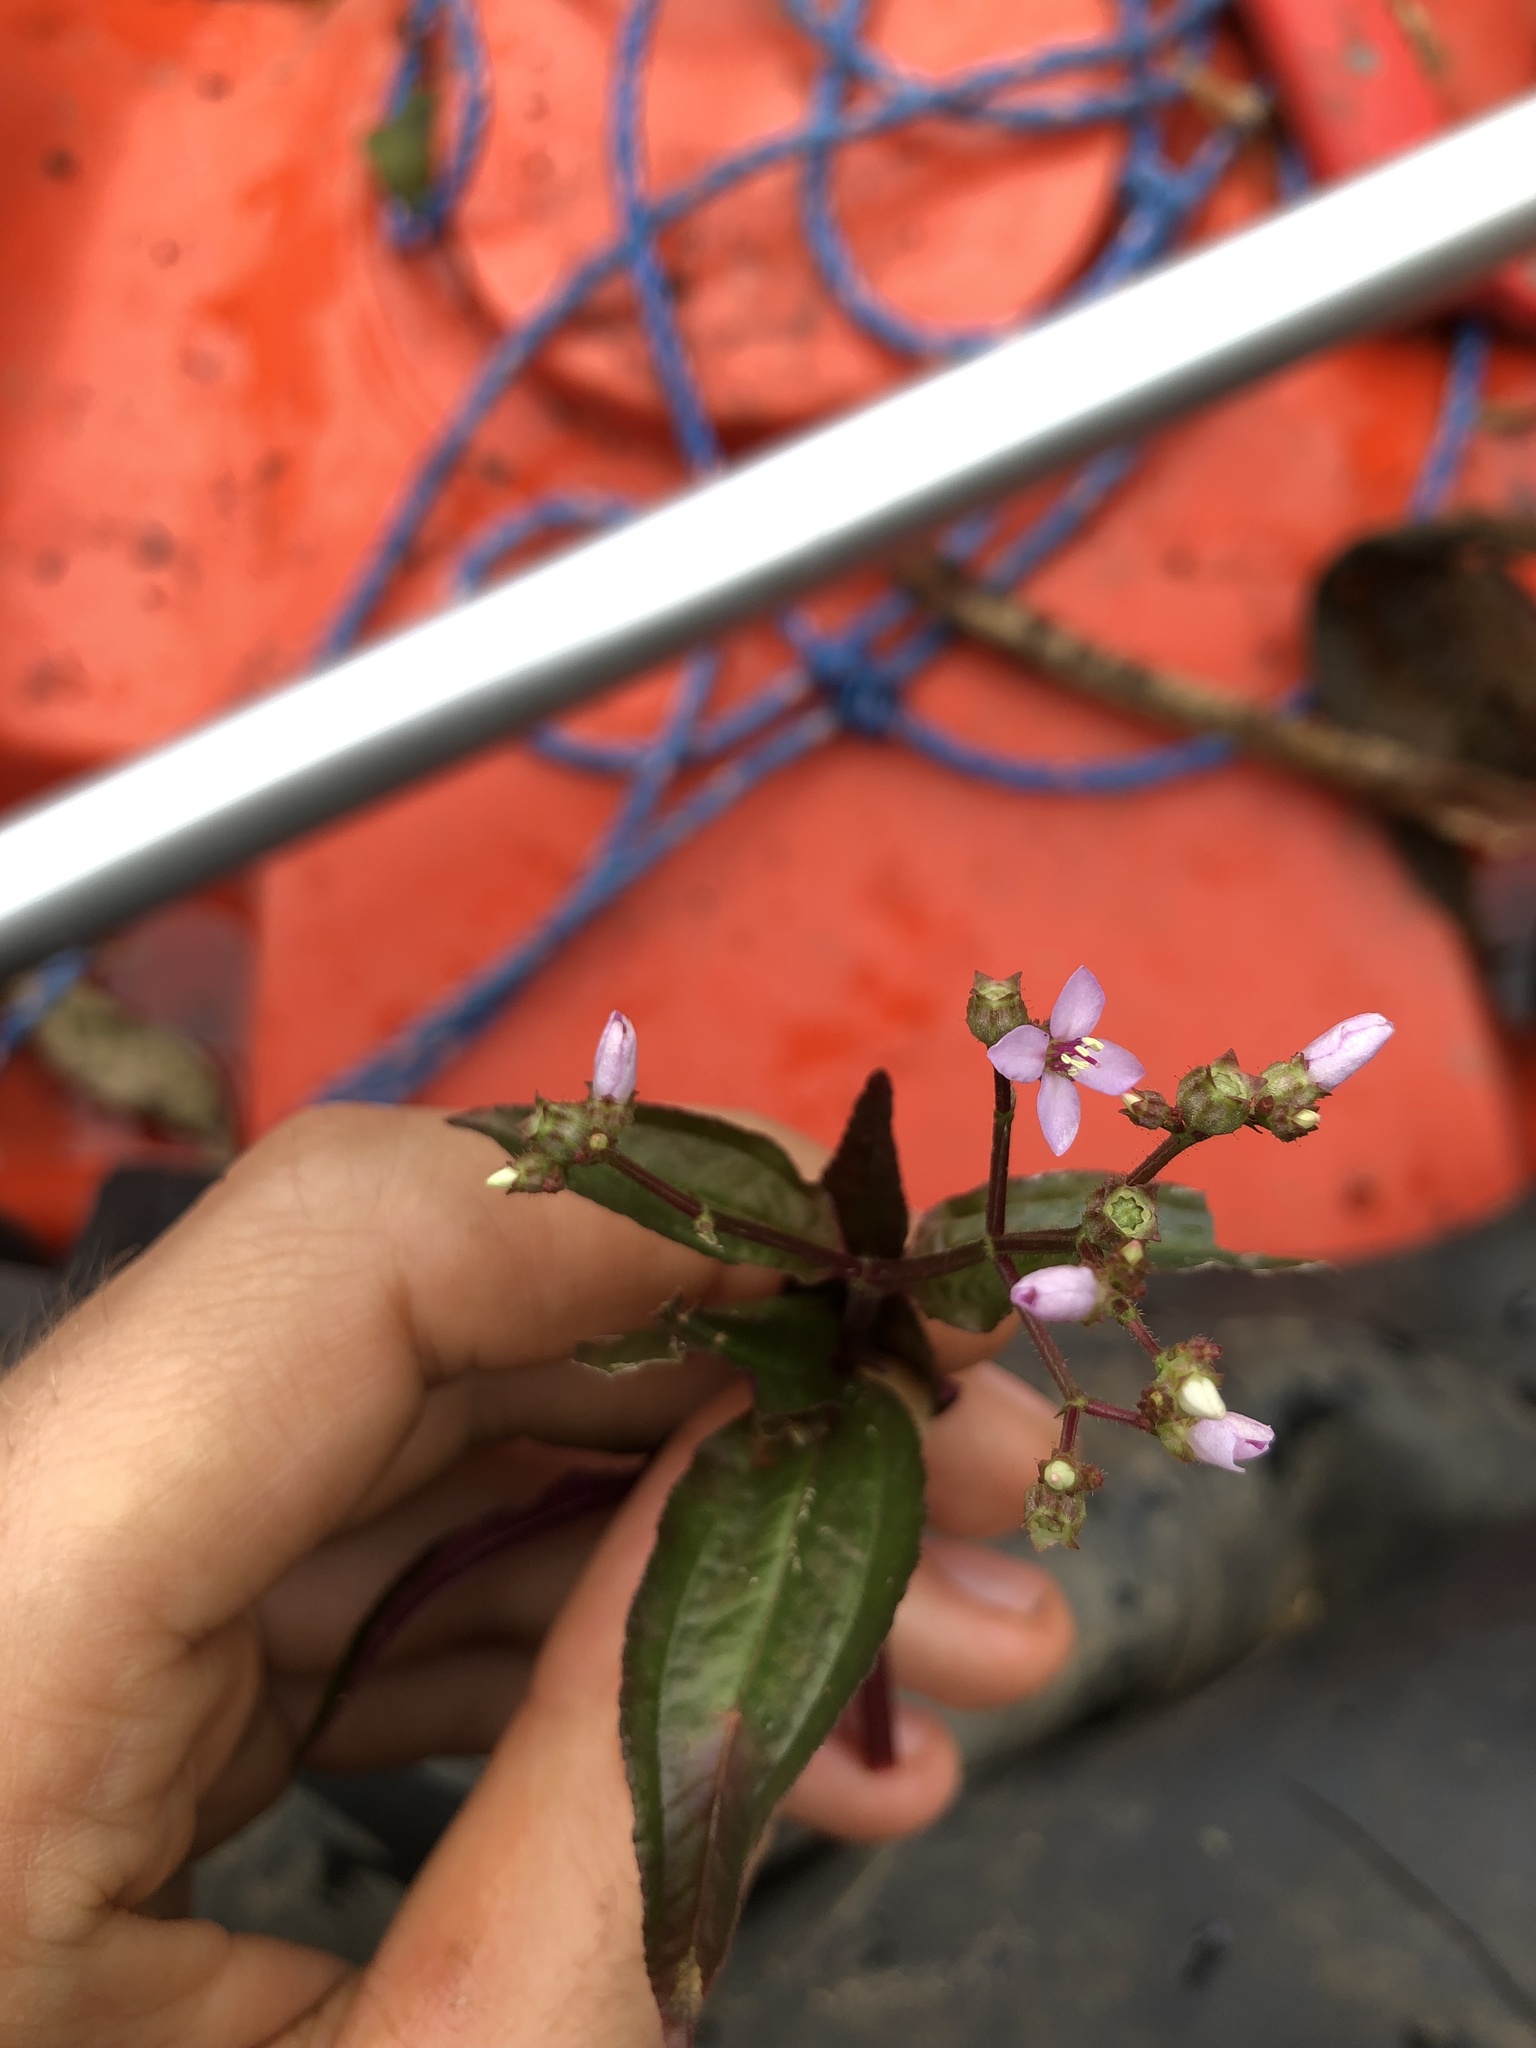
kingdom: Plantae
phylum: Tracheophyta
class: Magnoliopsida
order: Myrtales
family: Melastomataceae
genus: Aciotis
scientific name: Aciotis acuminifolia
